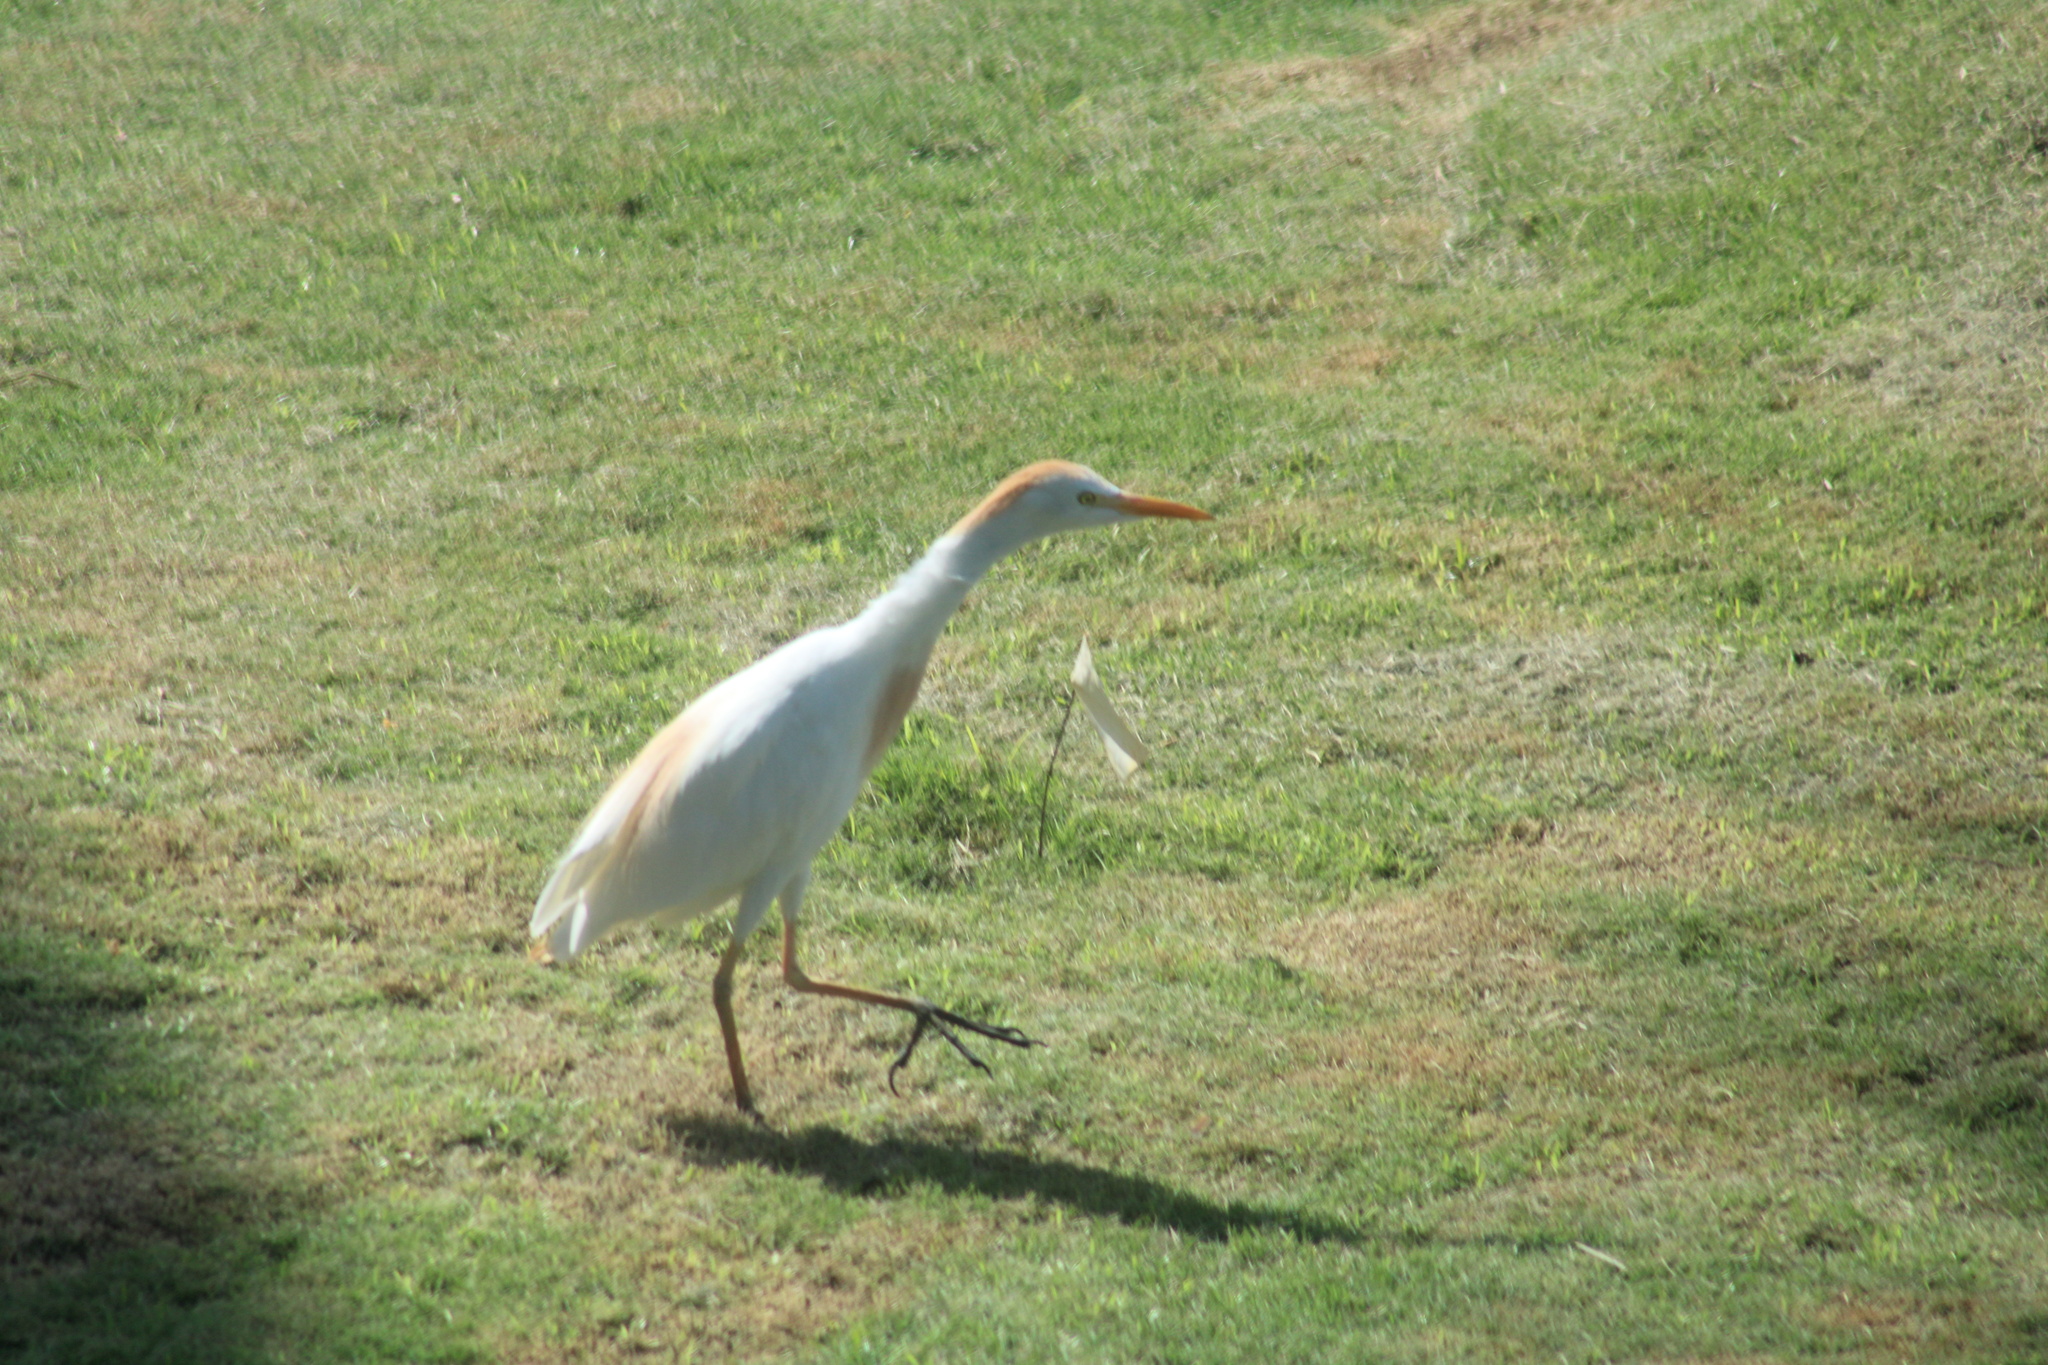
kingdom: Animalia
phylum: Chordata
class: Aves
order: Pelecaniformes
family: Ardeidae
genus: Bubulcus
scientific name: Bubulcus ibis
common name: Cattle egret
